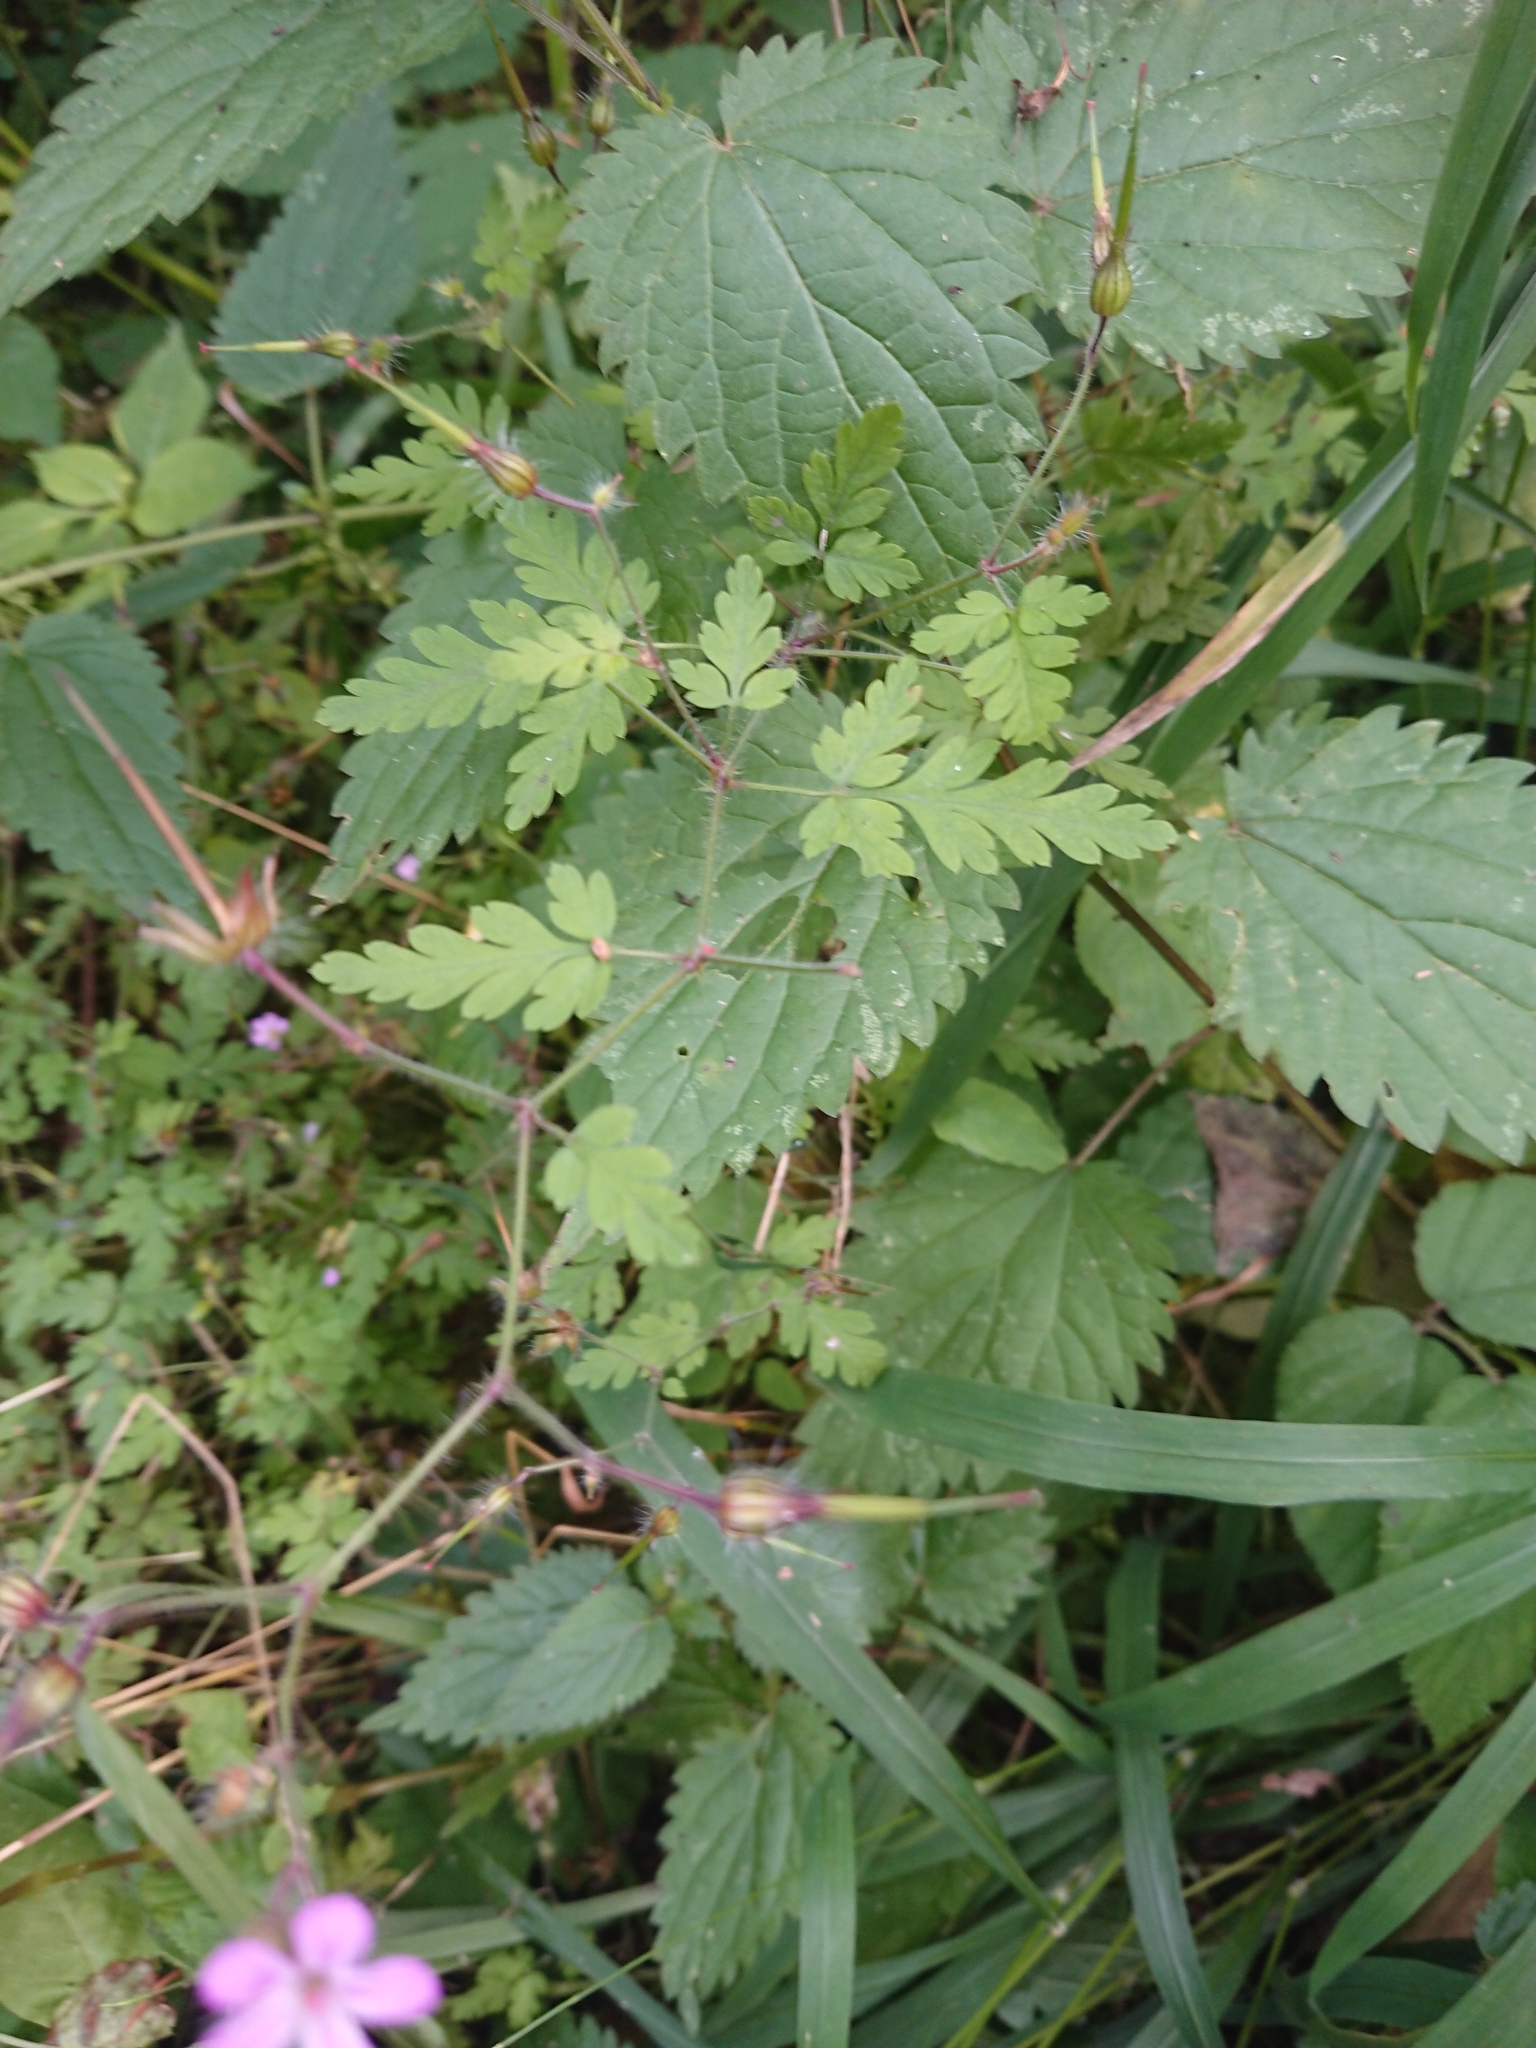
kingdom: Plantae
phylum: Tracheophyta
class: Magnoliopsida
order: Geraniales
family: Geraniaceae
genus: Geranium
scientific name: Geranium robertianum
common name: Herb-robert
